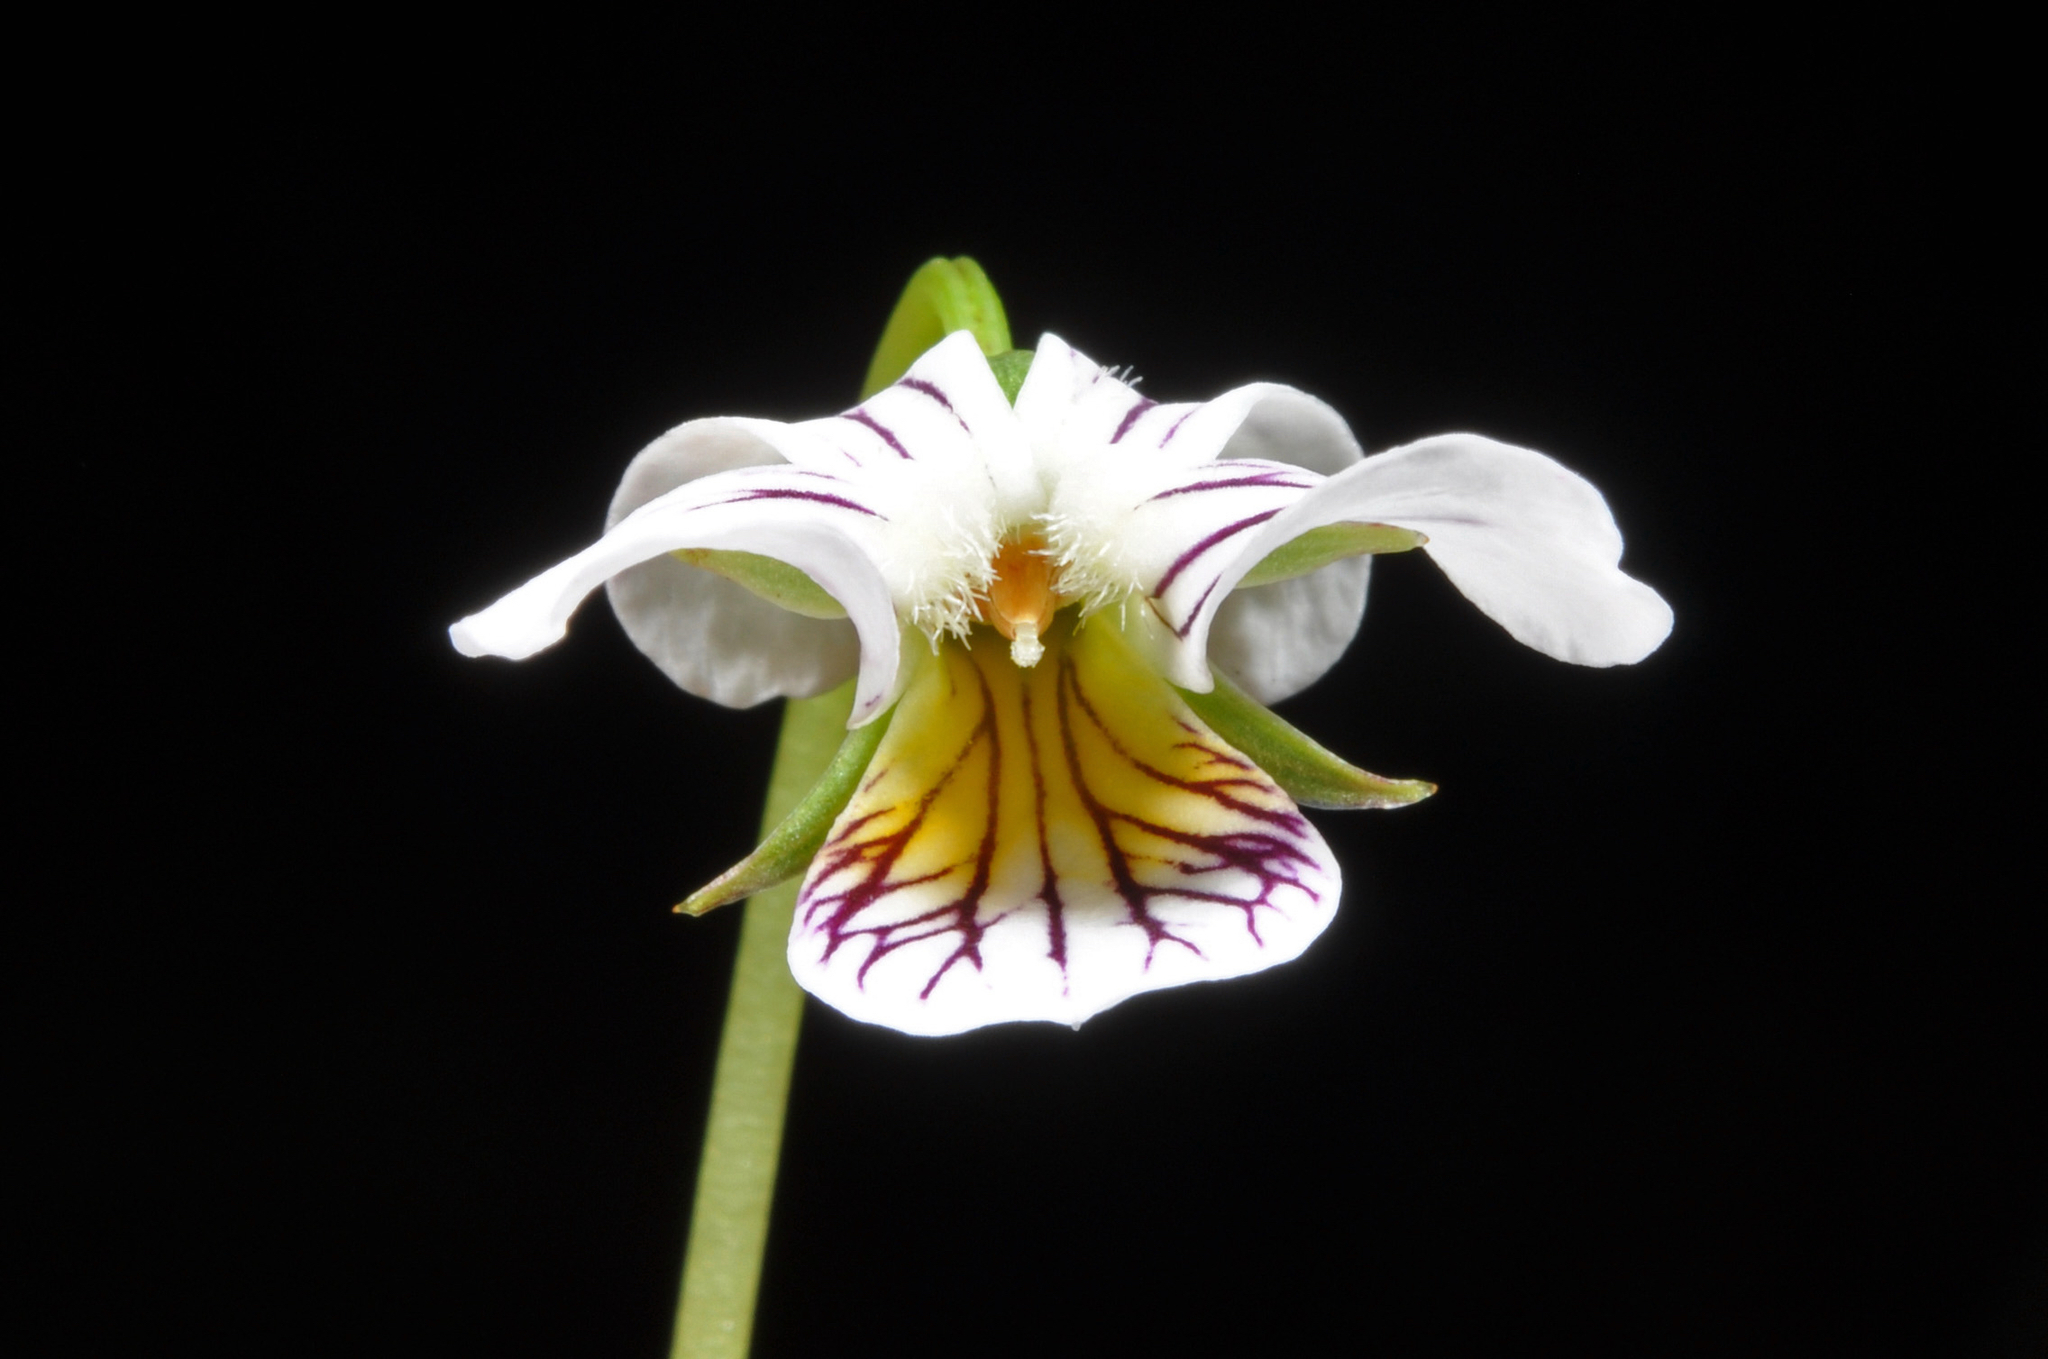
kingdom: Plantae
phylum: Tracheophyta
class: Magnoliopsida
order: Malpighiales
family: Violaceae
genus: Viola
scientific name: Viola filicaulis
